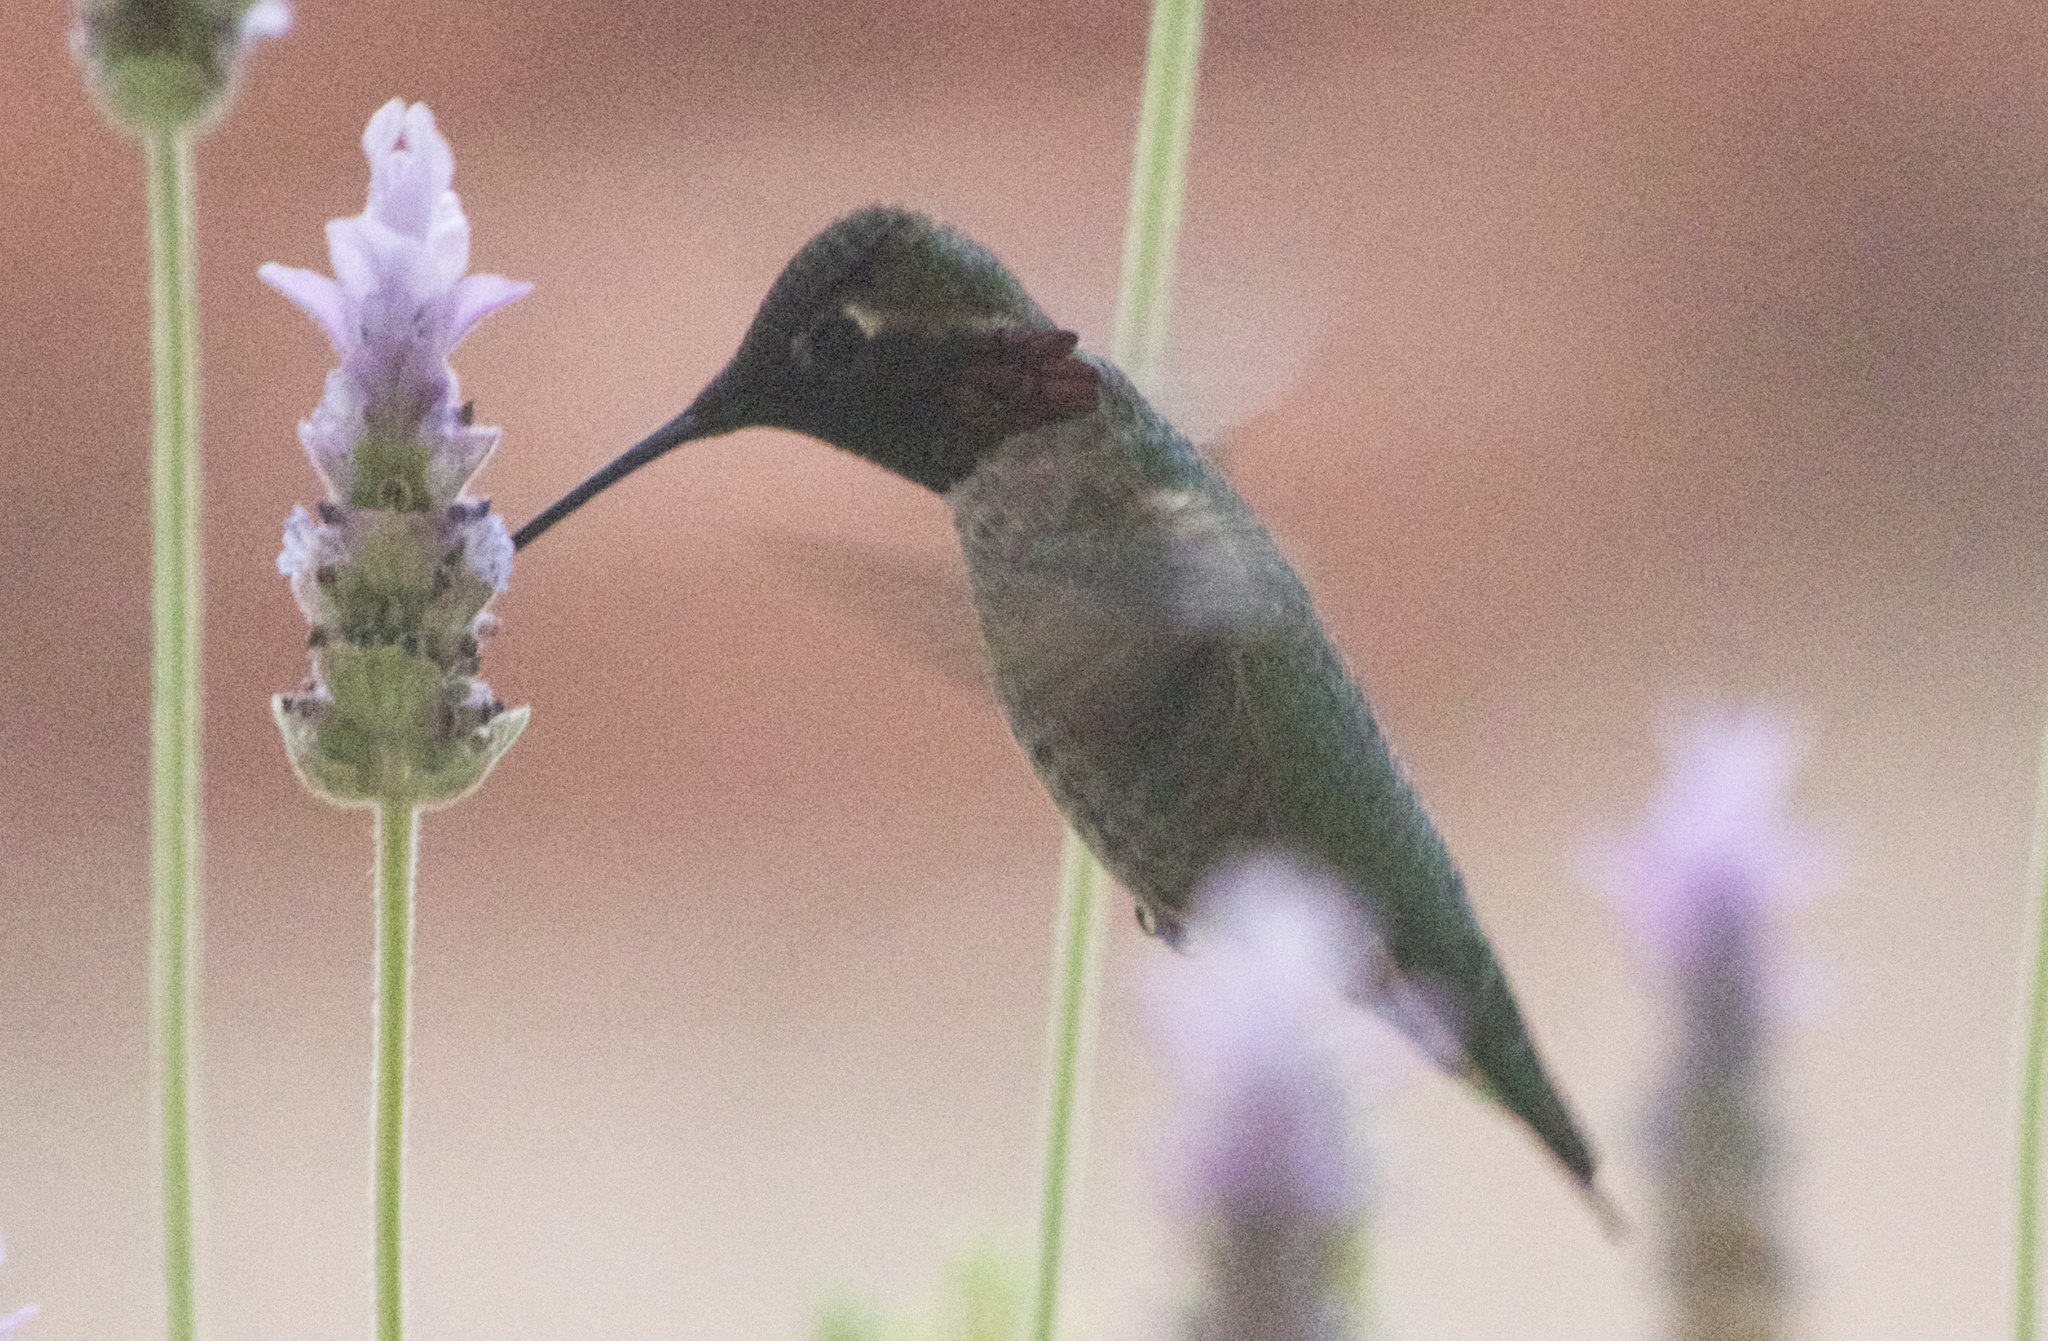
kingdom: Animalia
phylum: Chordata
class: Aves
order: Apodiformes
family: Trochilidae
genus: Calypte
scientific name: Calypte anna
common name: Anna's hummingbird
